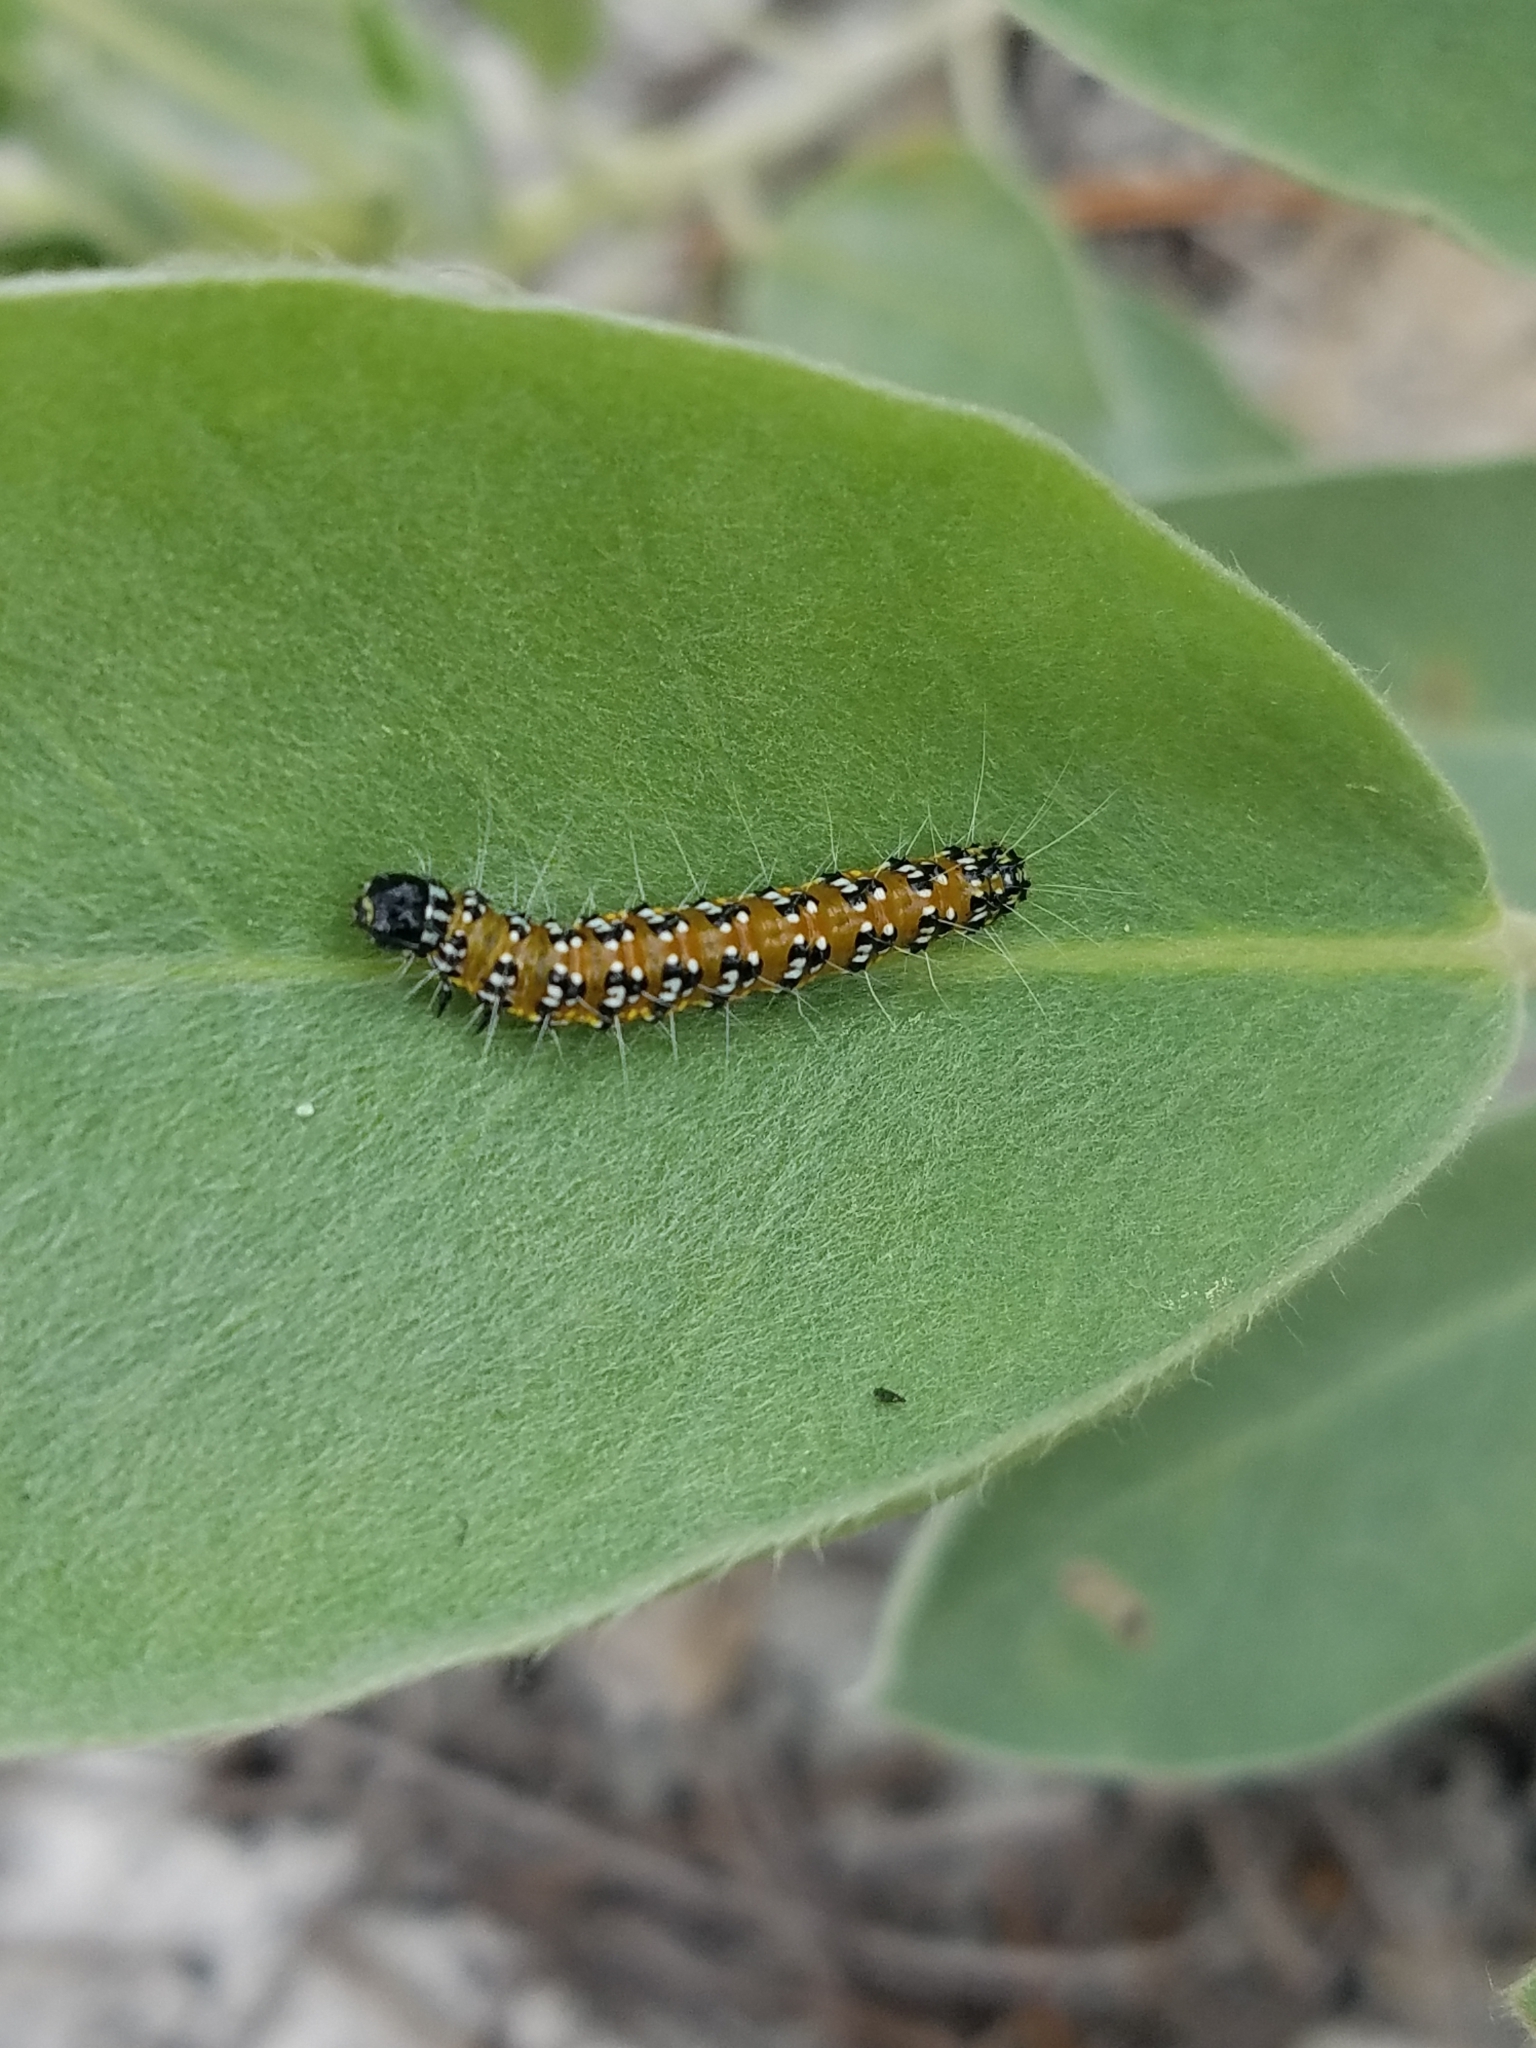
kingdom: Animalia
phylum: Arthropoda
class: Insecta
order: Lepidoptera
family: Crambidae
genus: Uresiphita
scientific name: Uresiphita reversalis
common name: Genista broom moth
